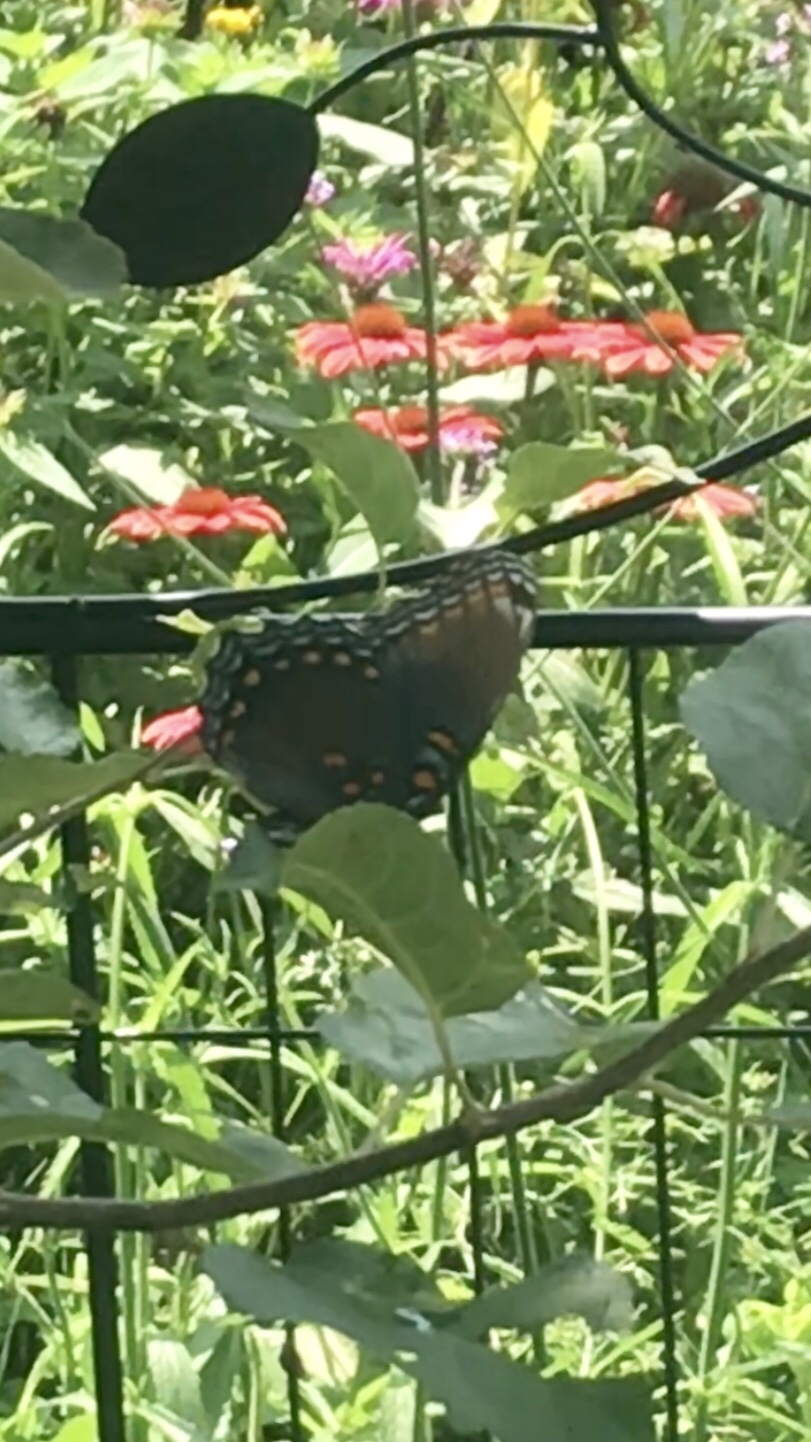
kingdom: Animalia
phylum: Arthropoda
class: Insecta
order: Lepidoptera
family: Nymphalidae
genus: Limenitis
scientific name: Limenitis astyanax
